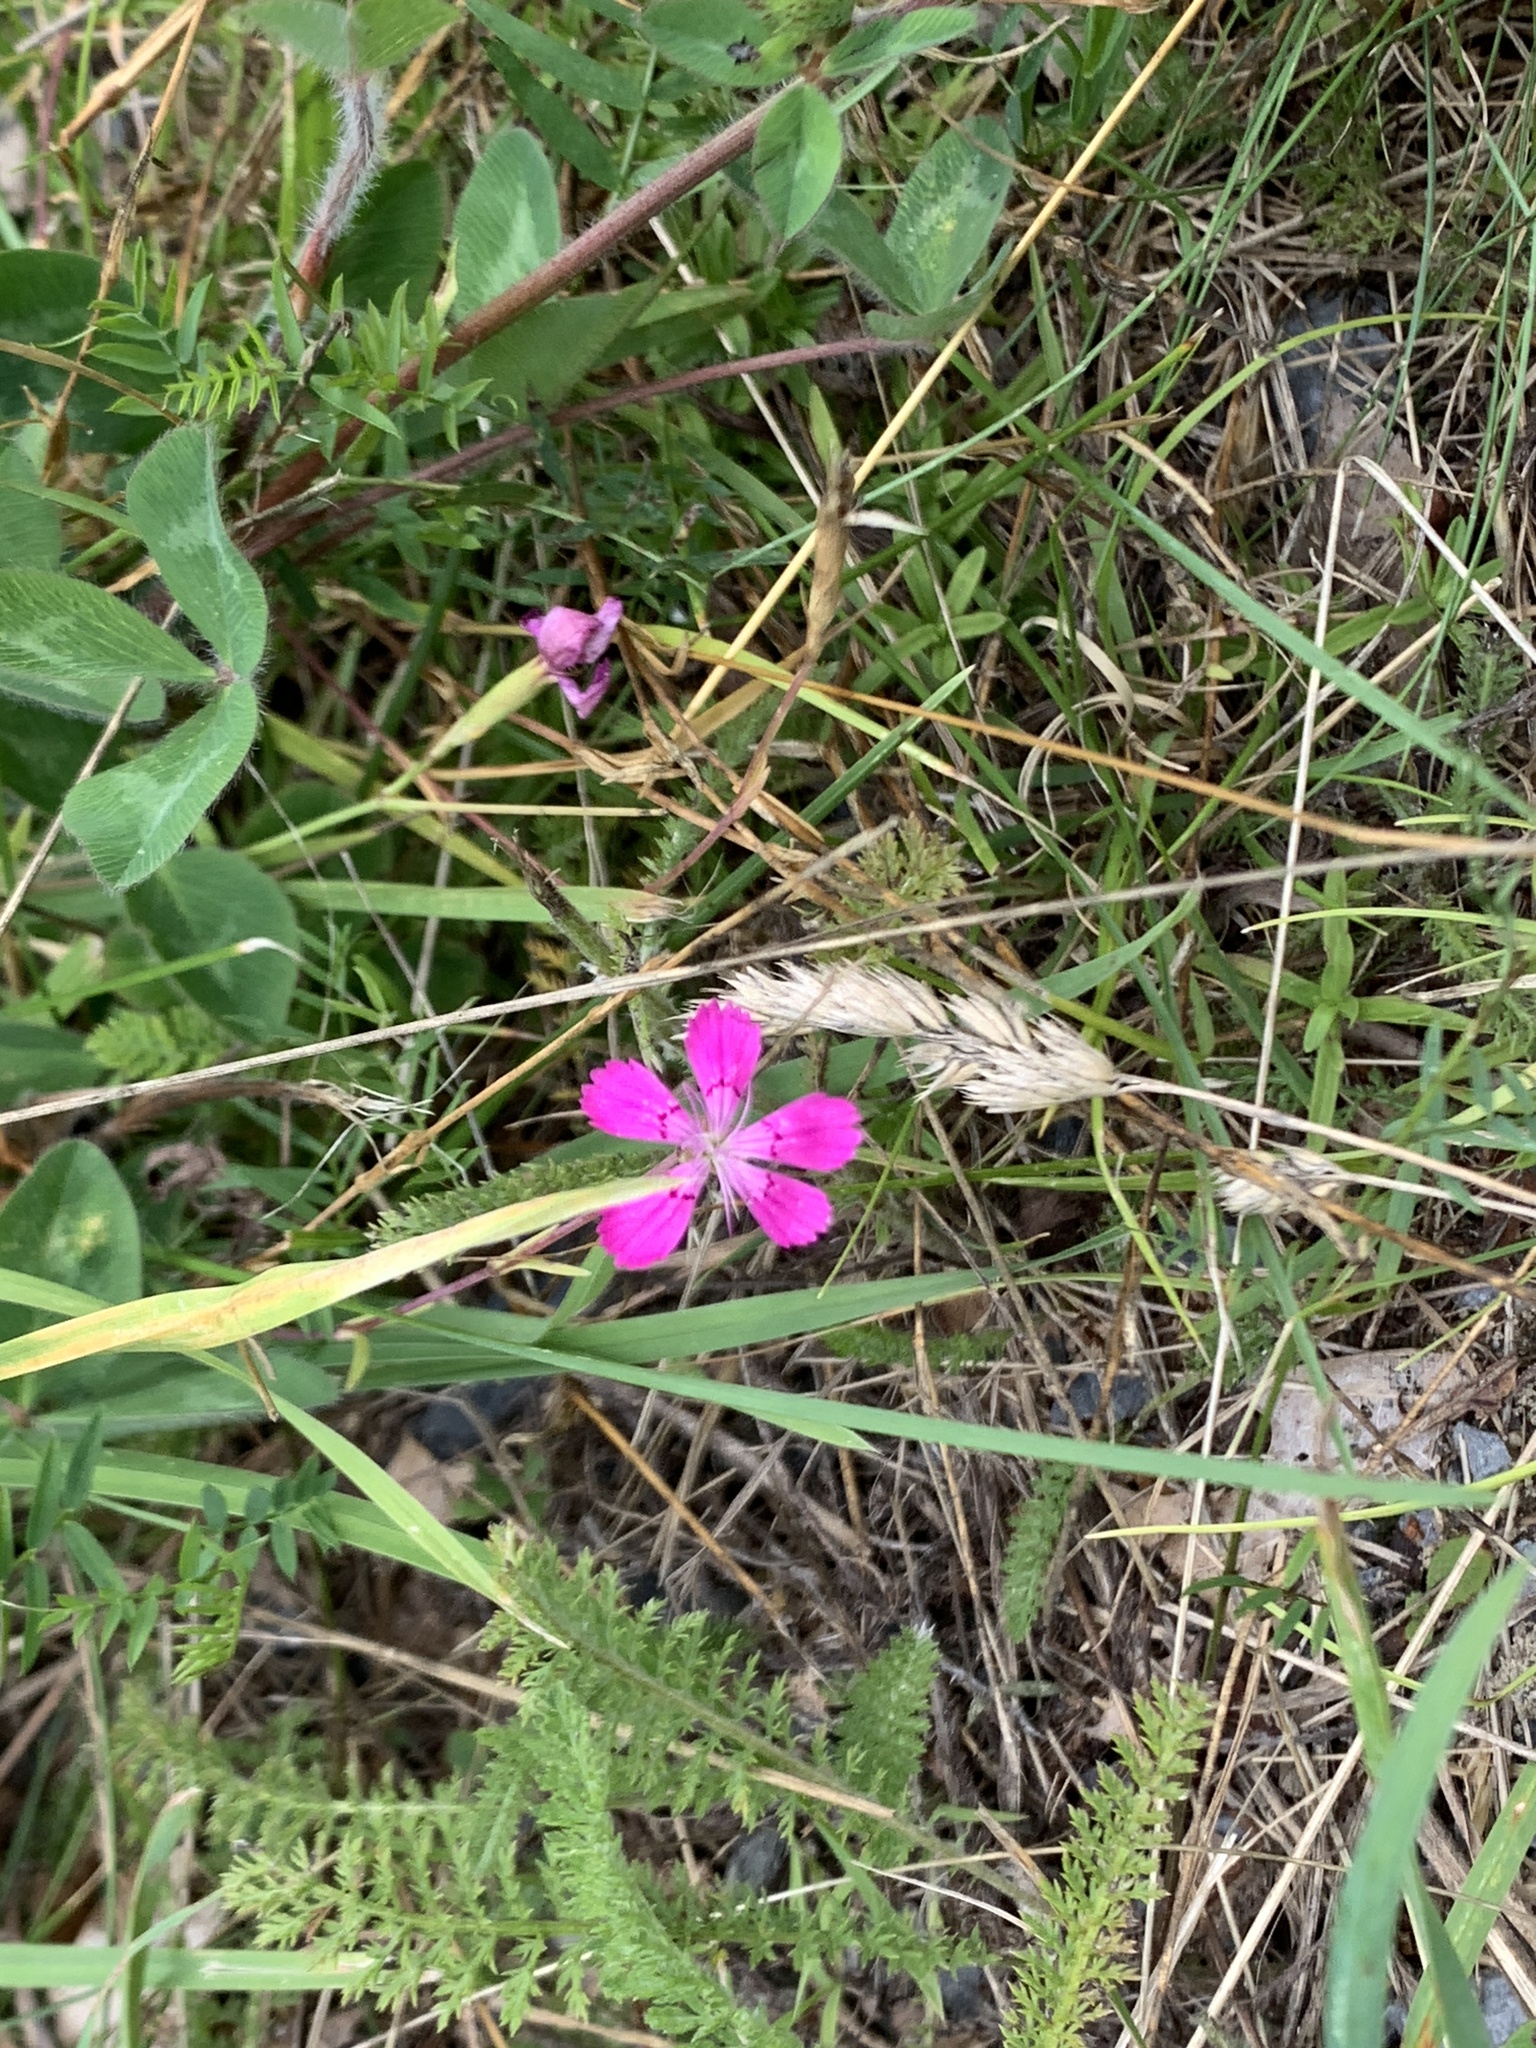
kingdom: Plantae
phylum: Tracheophyta
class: Magnoliopsida
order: Caryophyllales
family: Caryophyllaceae
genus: Dianthus
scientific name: Dianthus deltoides
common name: Maiden pink
